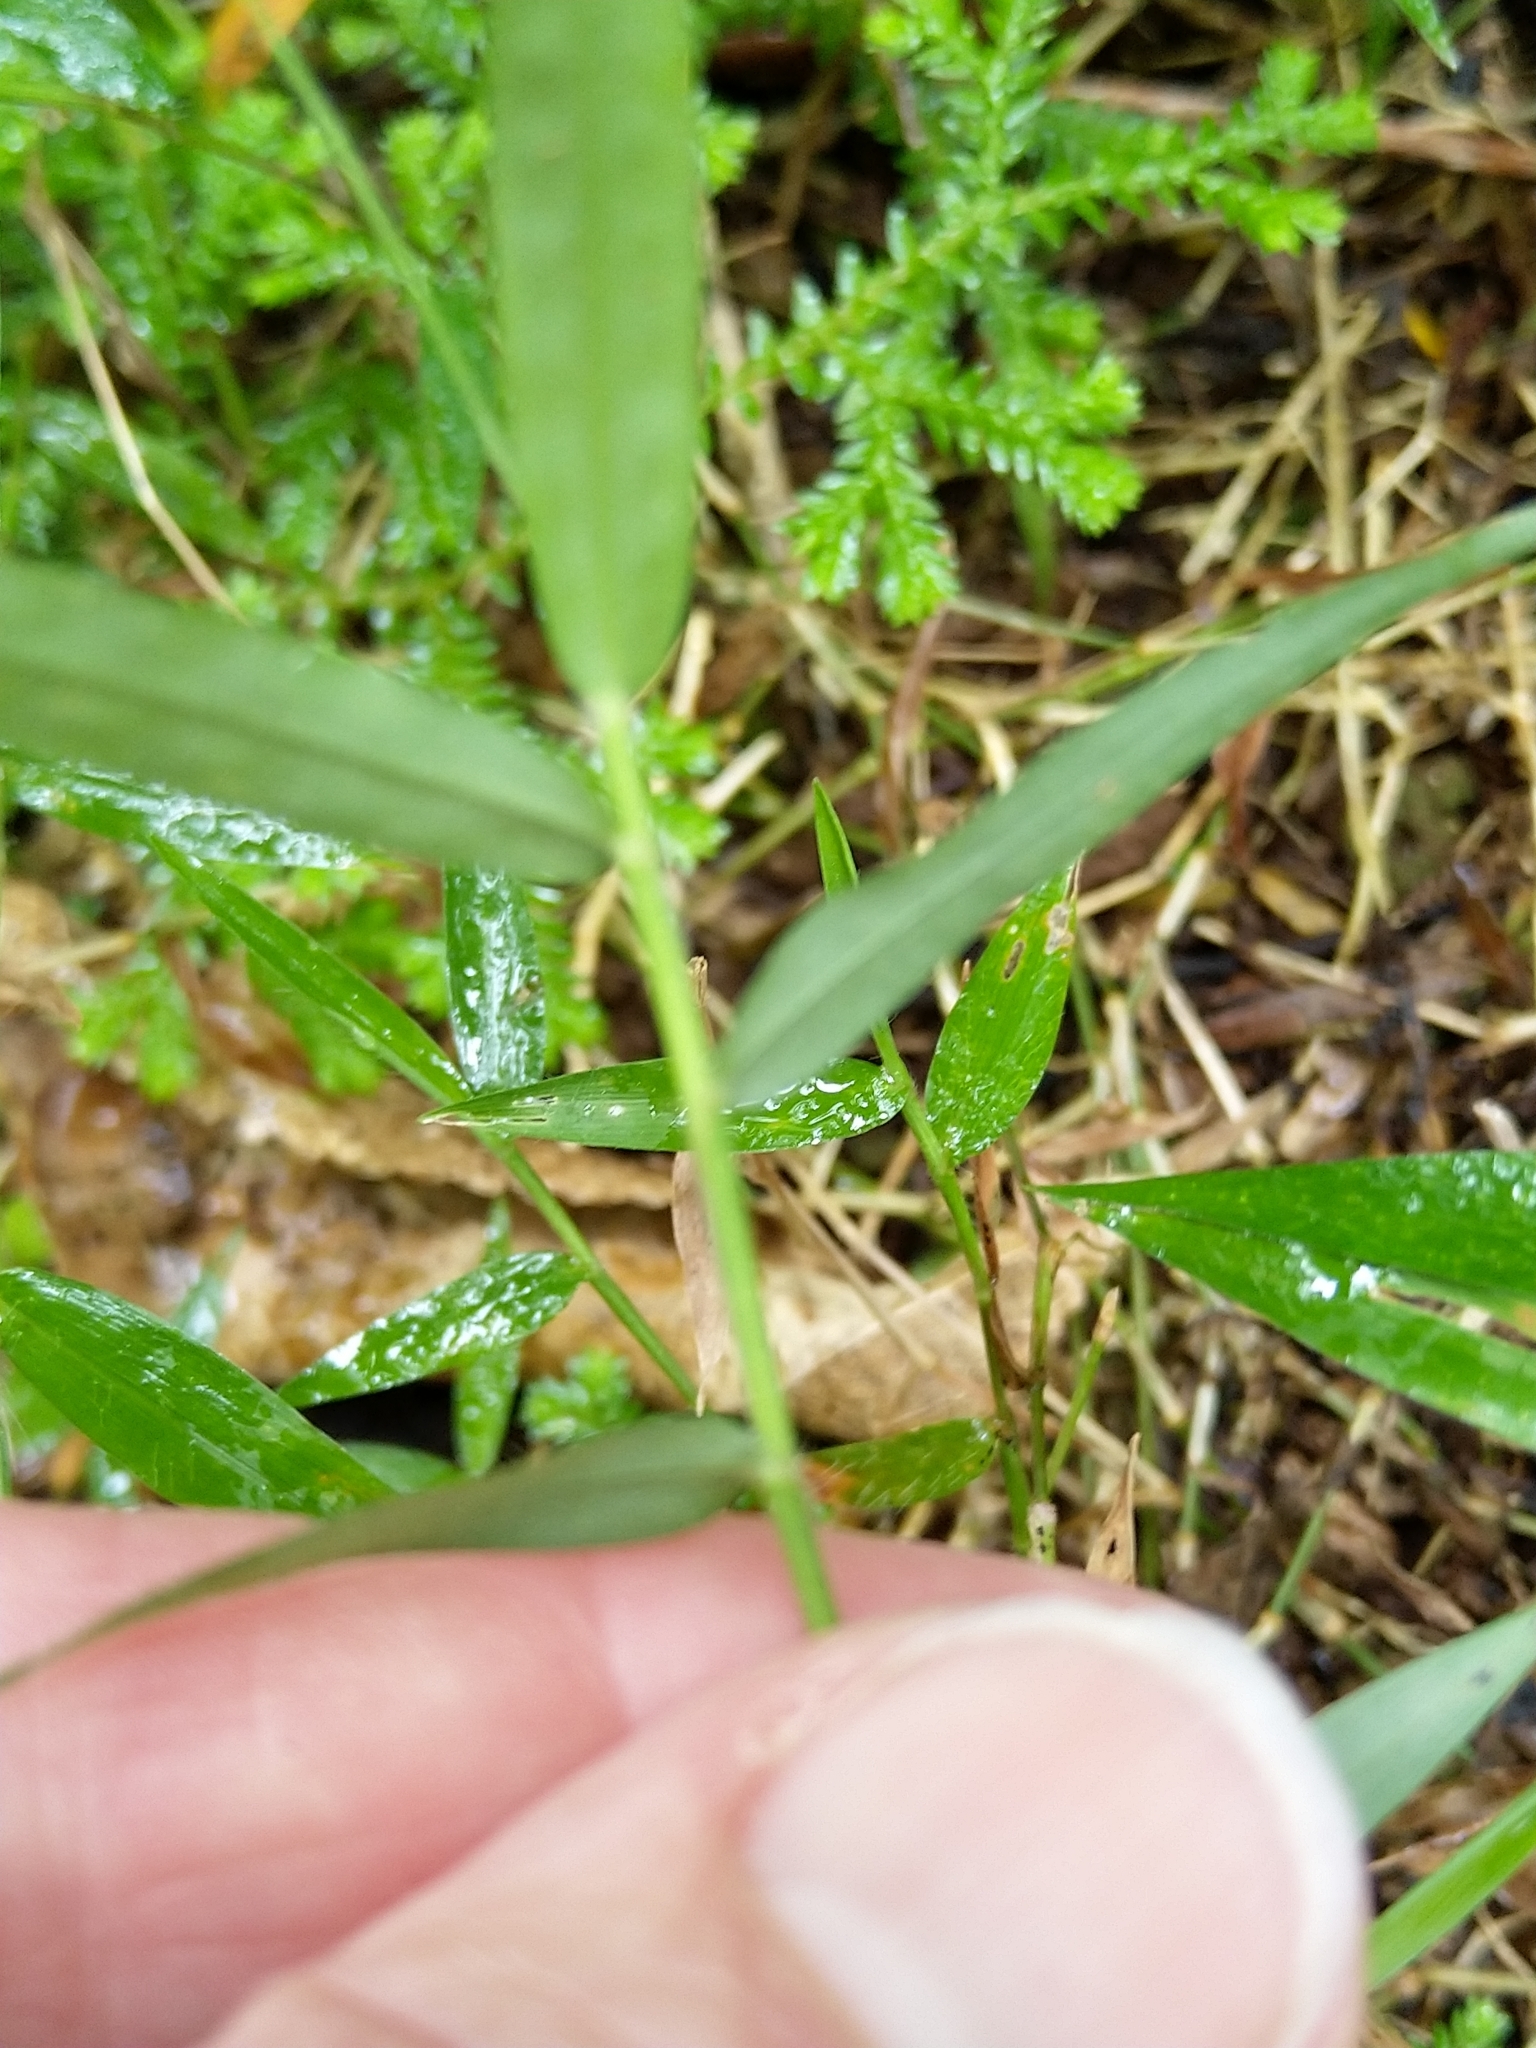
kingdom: Plantae
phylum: Tracheophyta
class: Liliopsida
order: Poales
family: Poaceae
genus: Oplismenus
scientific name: Oplismenus hirtellus
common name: Basketgrass
